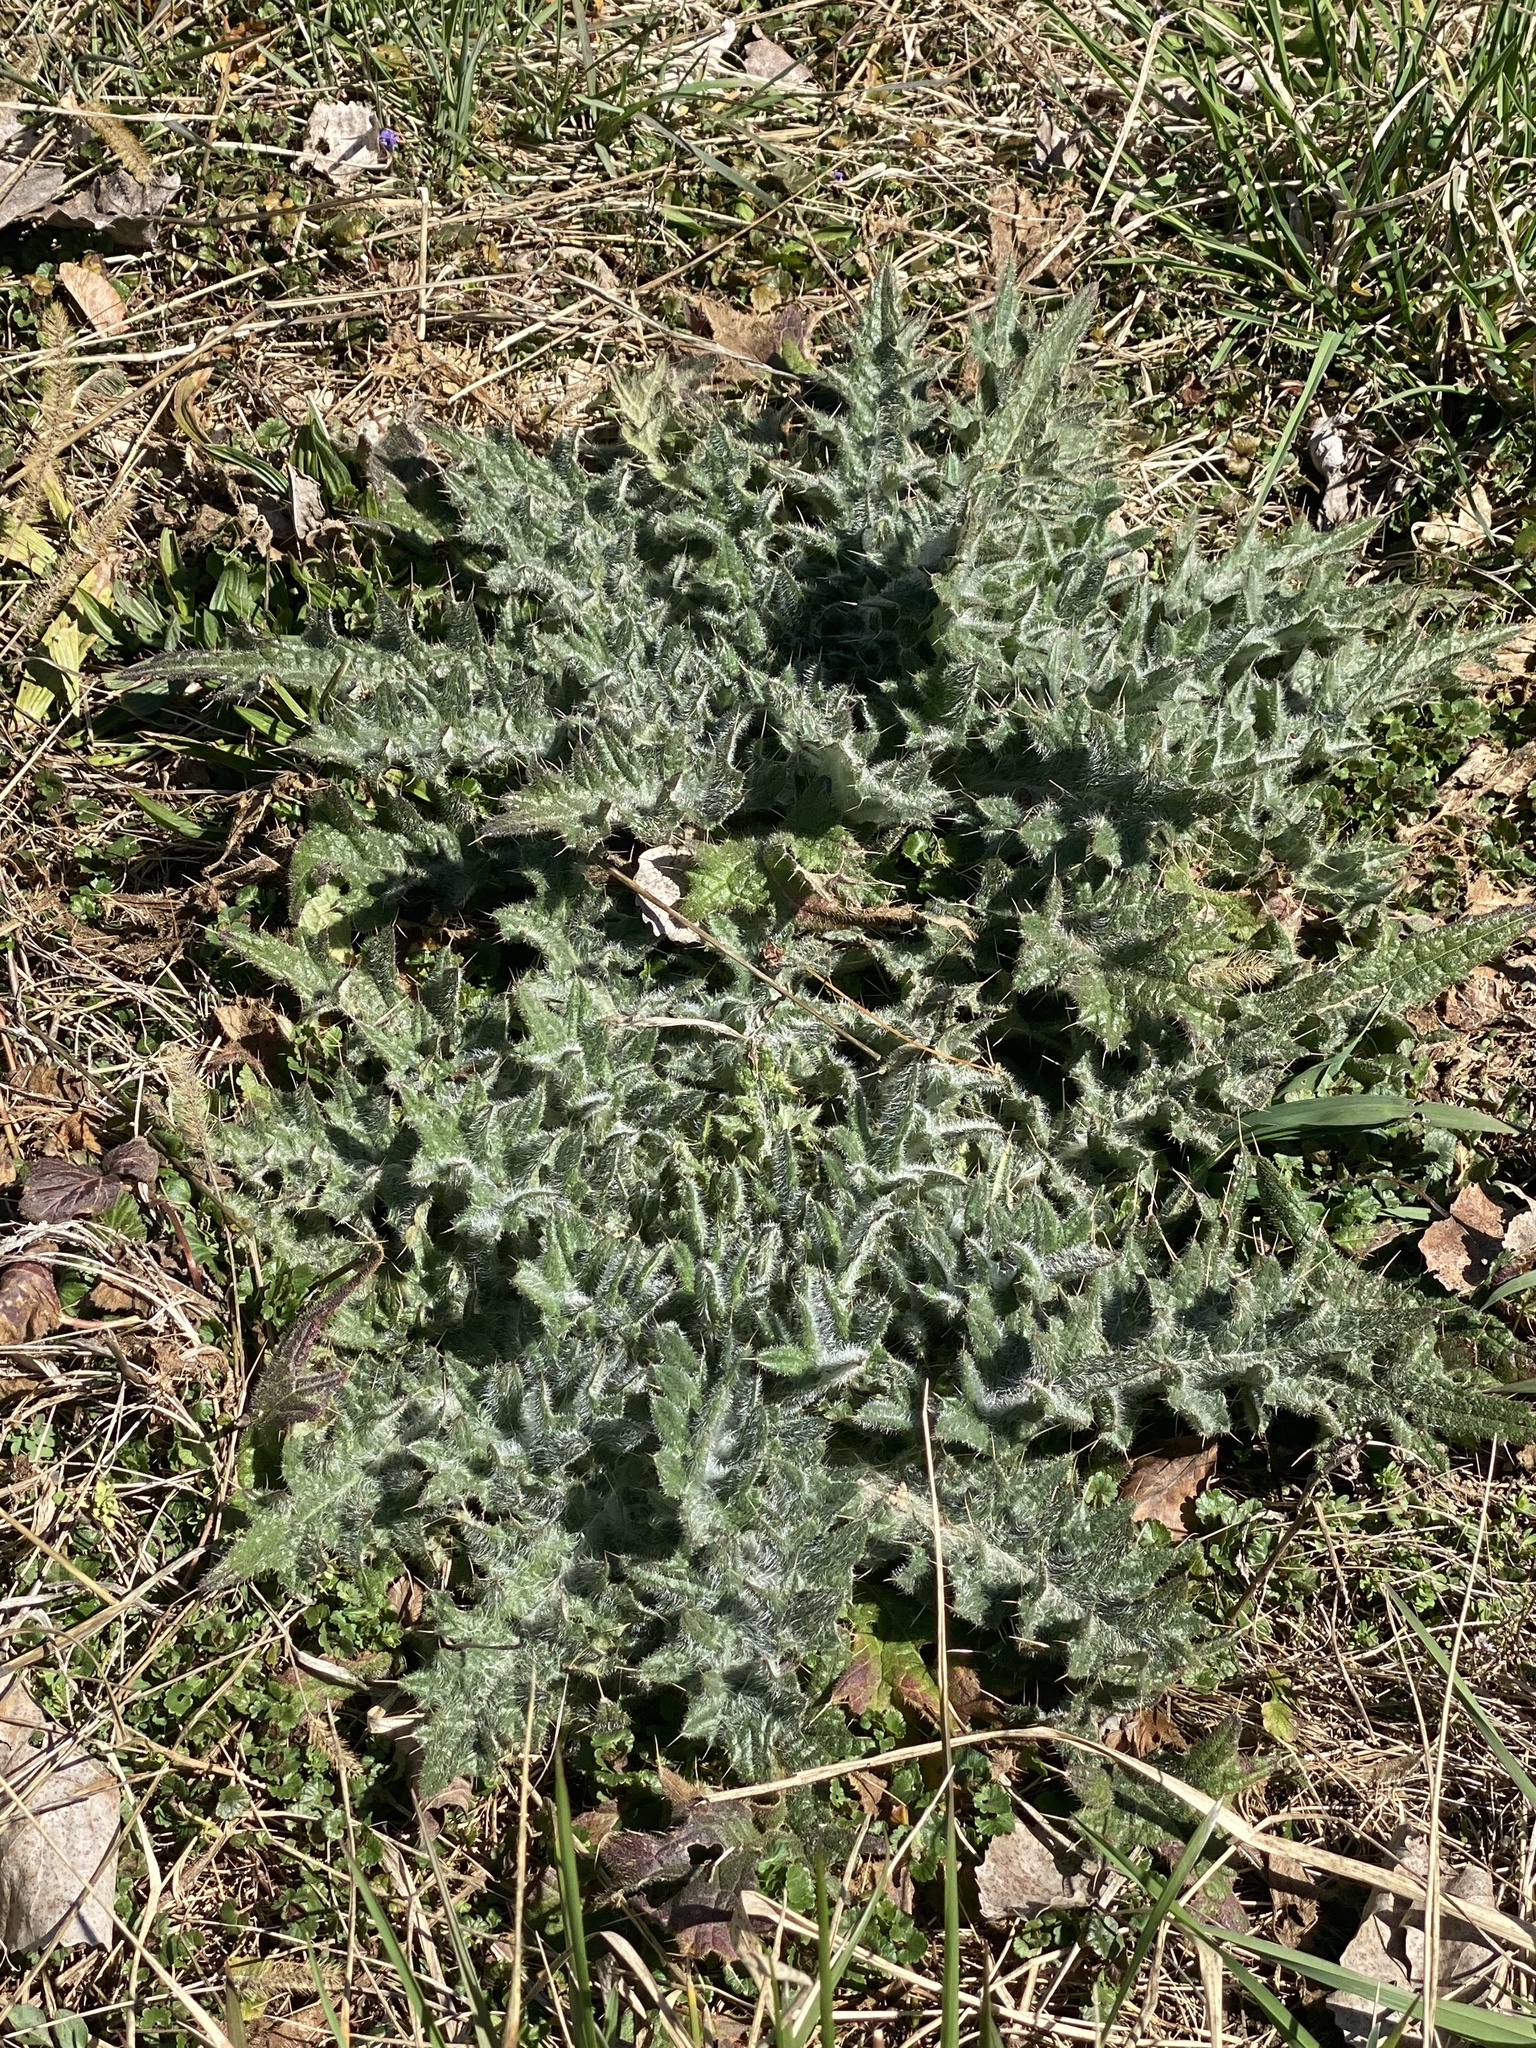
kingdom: Plantae
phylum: Tracheophyta
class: Magnoliopsida
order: Asterales
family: Asteraceae
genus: Cirsium
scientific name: Cirsium vulgare
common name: Bull thistle
